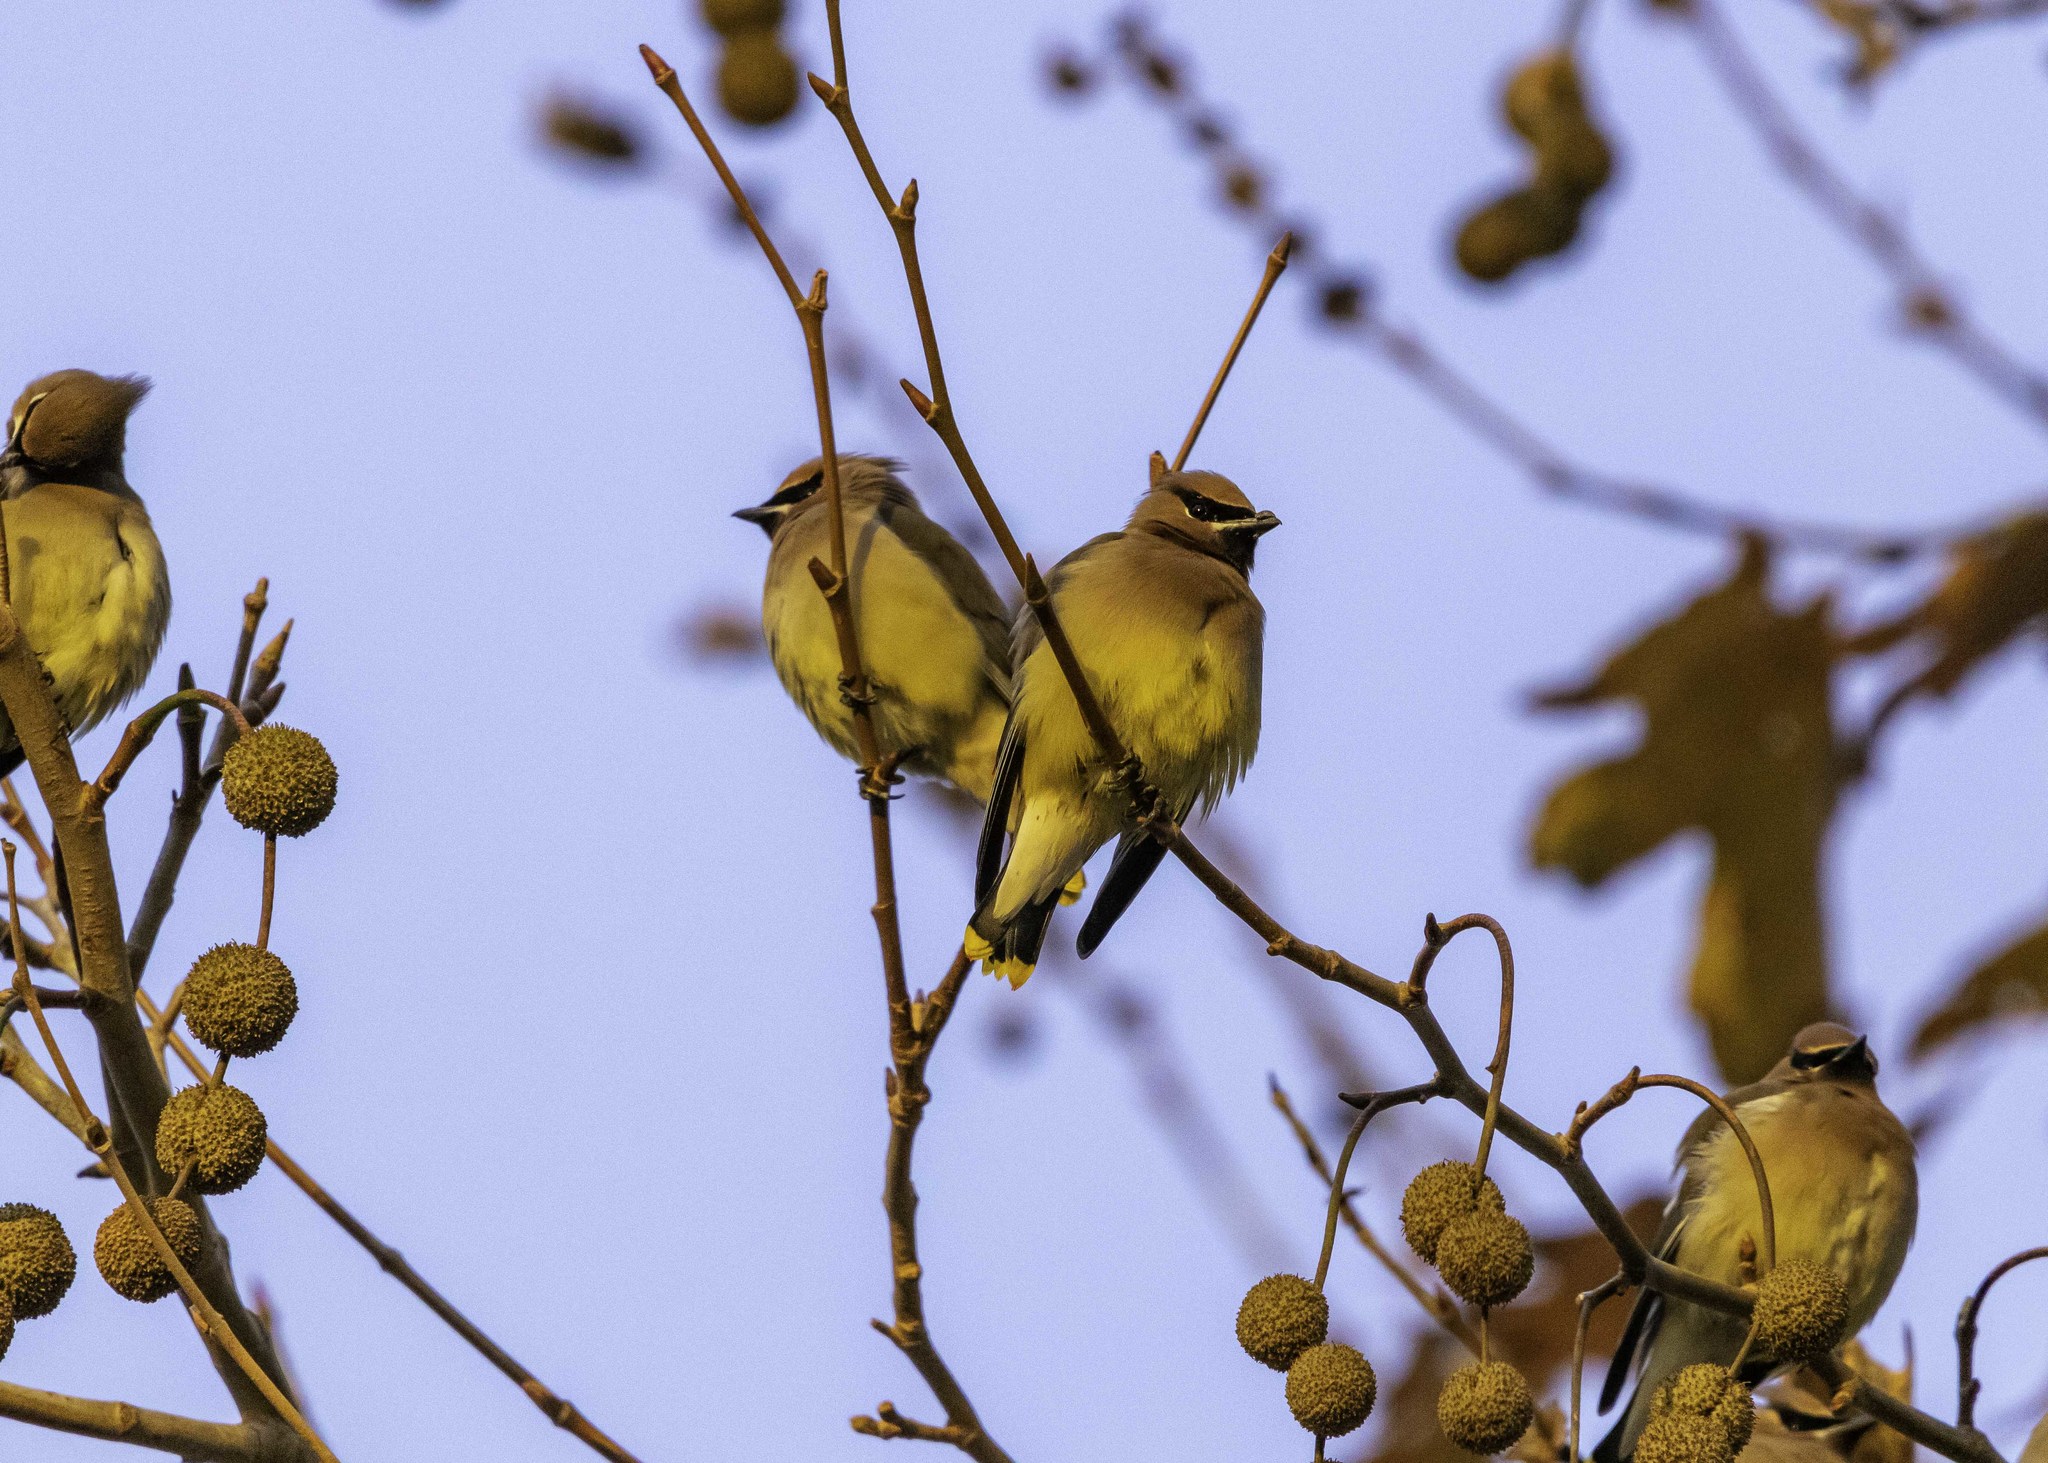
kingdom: Animalia
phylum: Chordata
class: Aves
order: Passeriformes
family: Bombycillidae
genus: Bombycilla
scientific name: Bombycilla cedrorum
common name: Cedar waxwing
